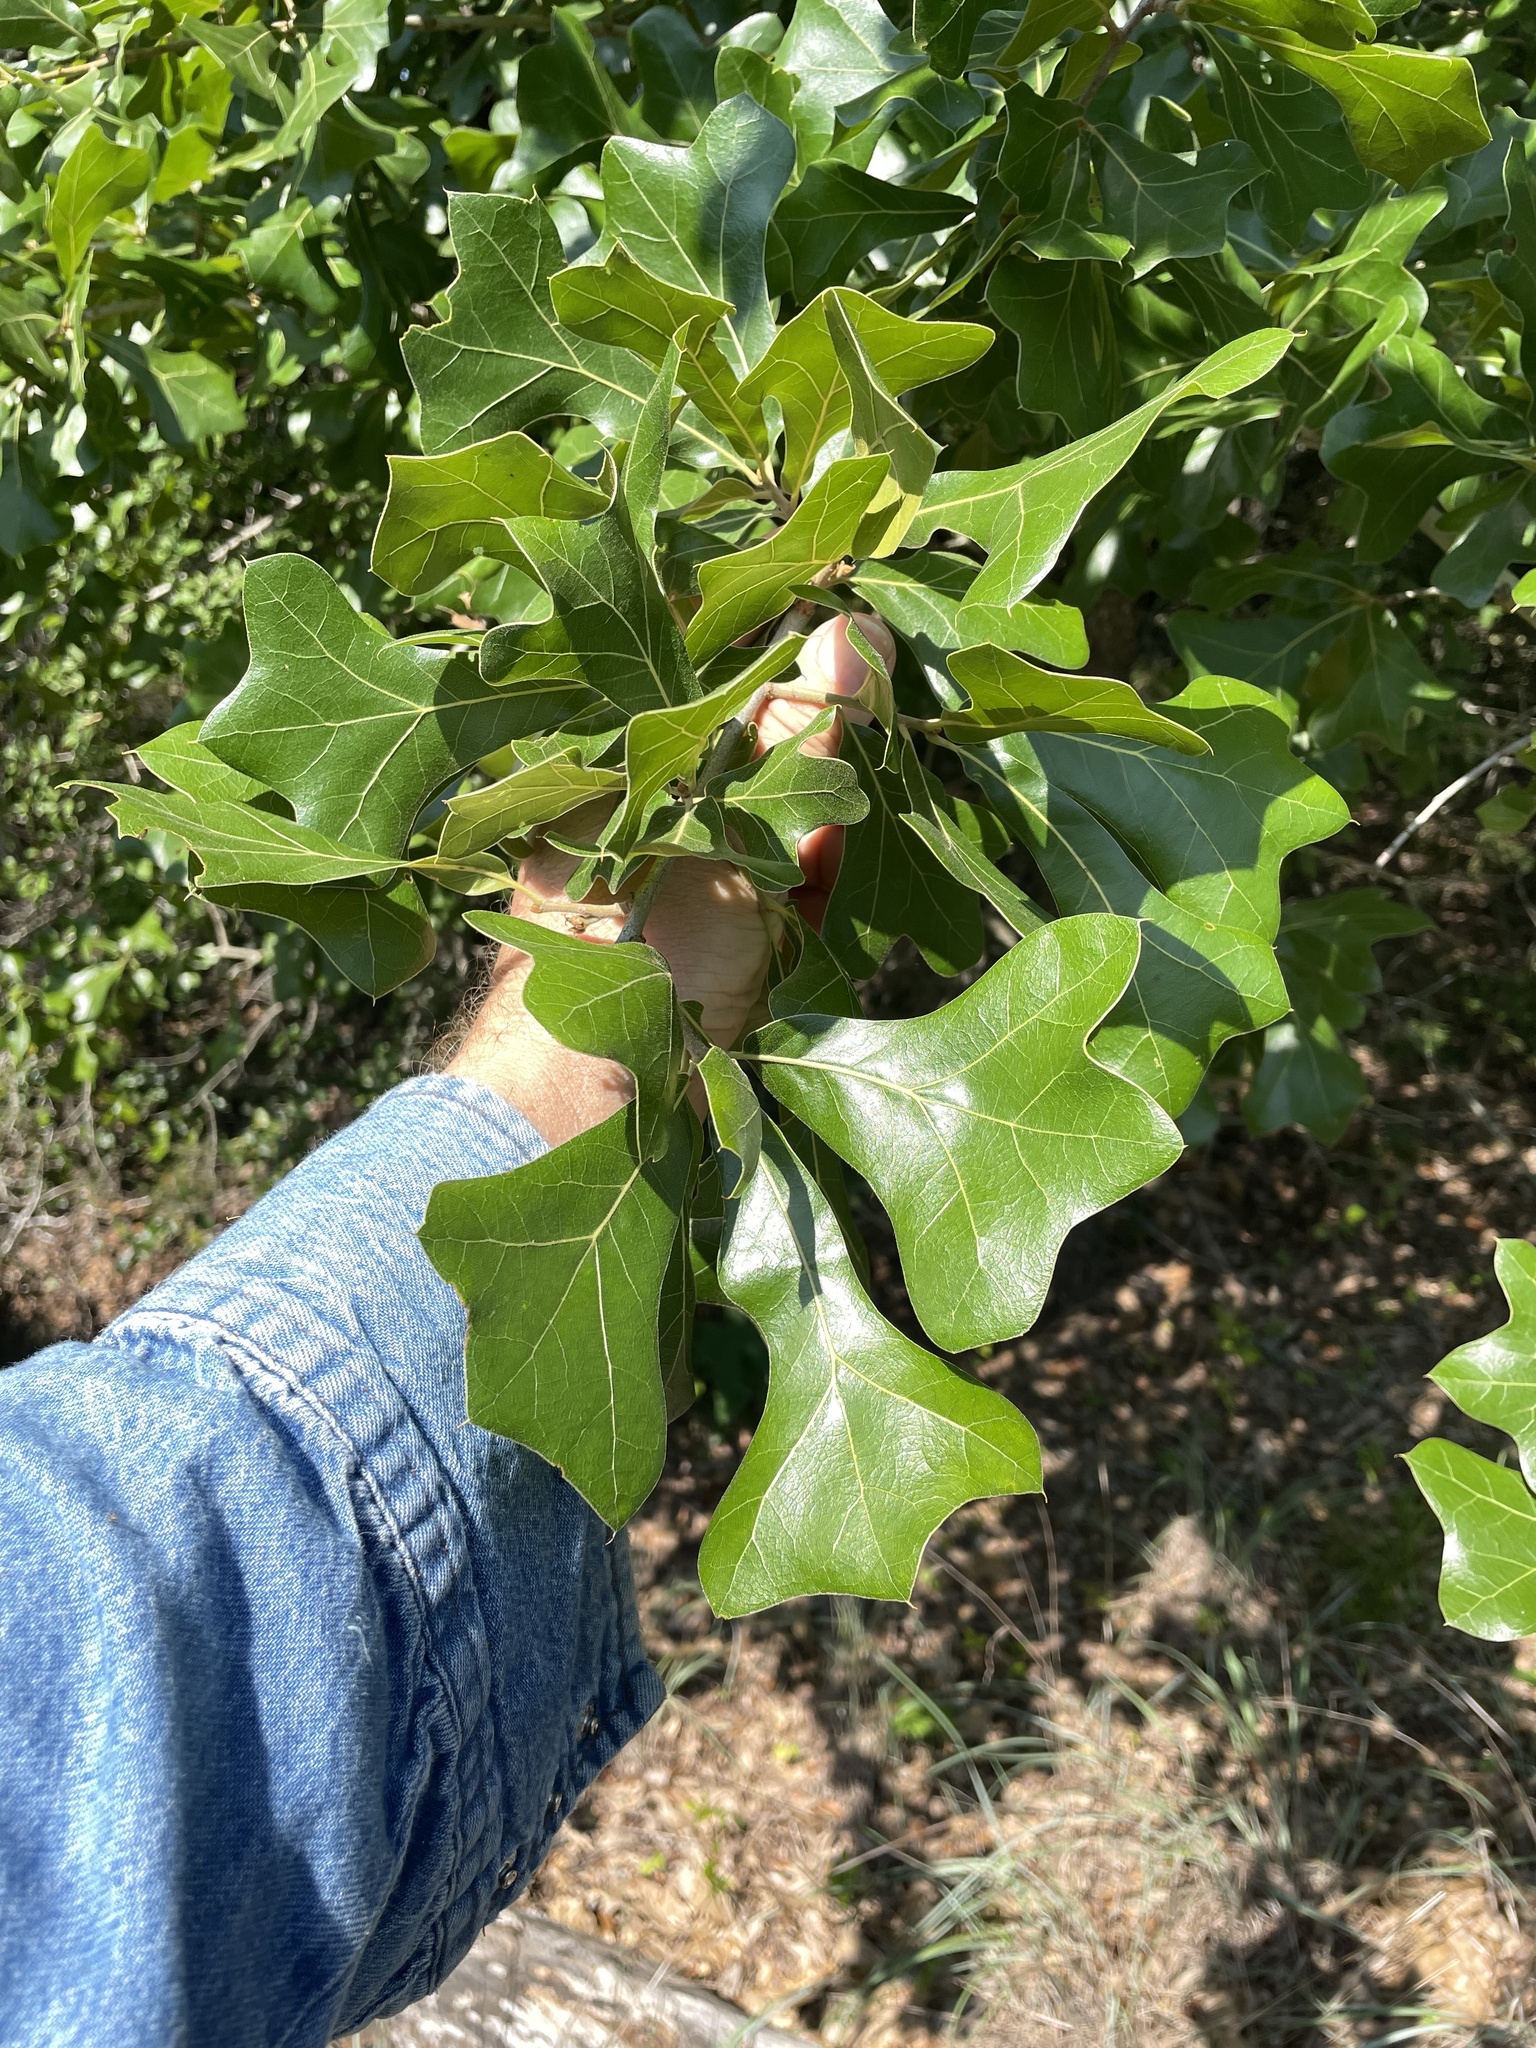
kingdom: Plantae
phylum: Tracheophyta
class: Magnoliopsida
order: Fagales
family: Fagaceae
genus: Quercus
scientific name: Quercus marilandica
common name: Blackjack oak
